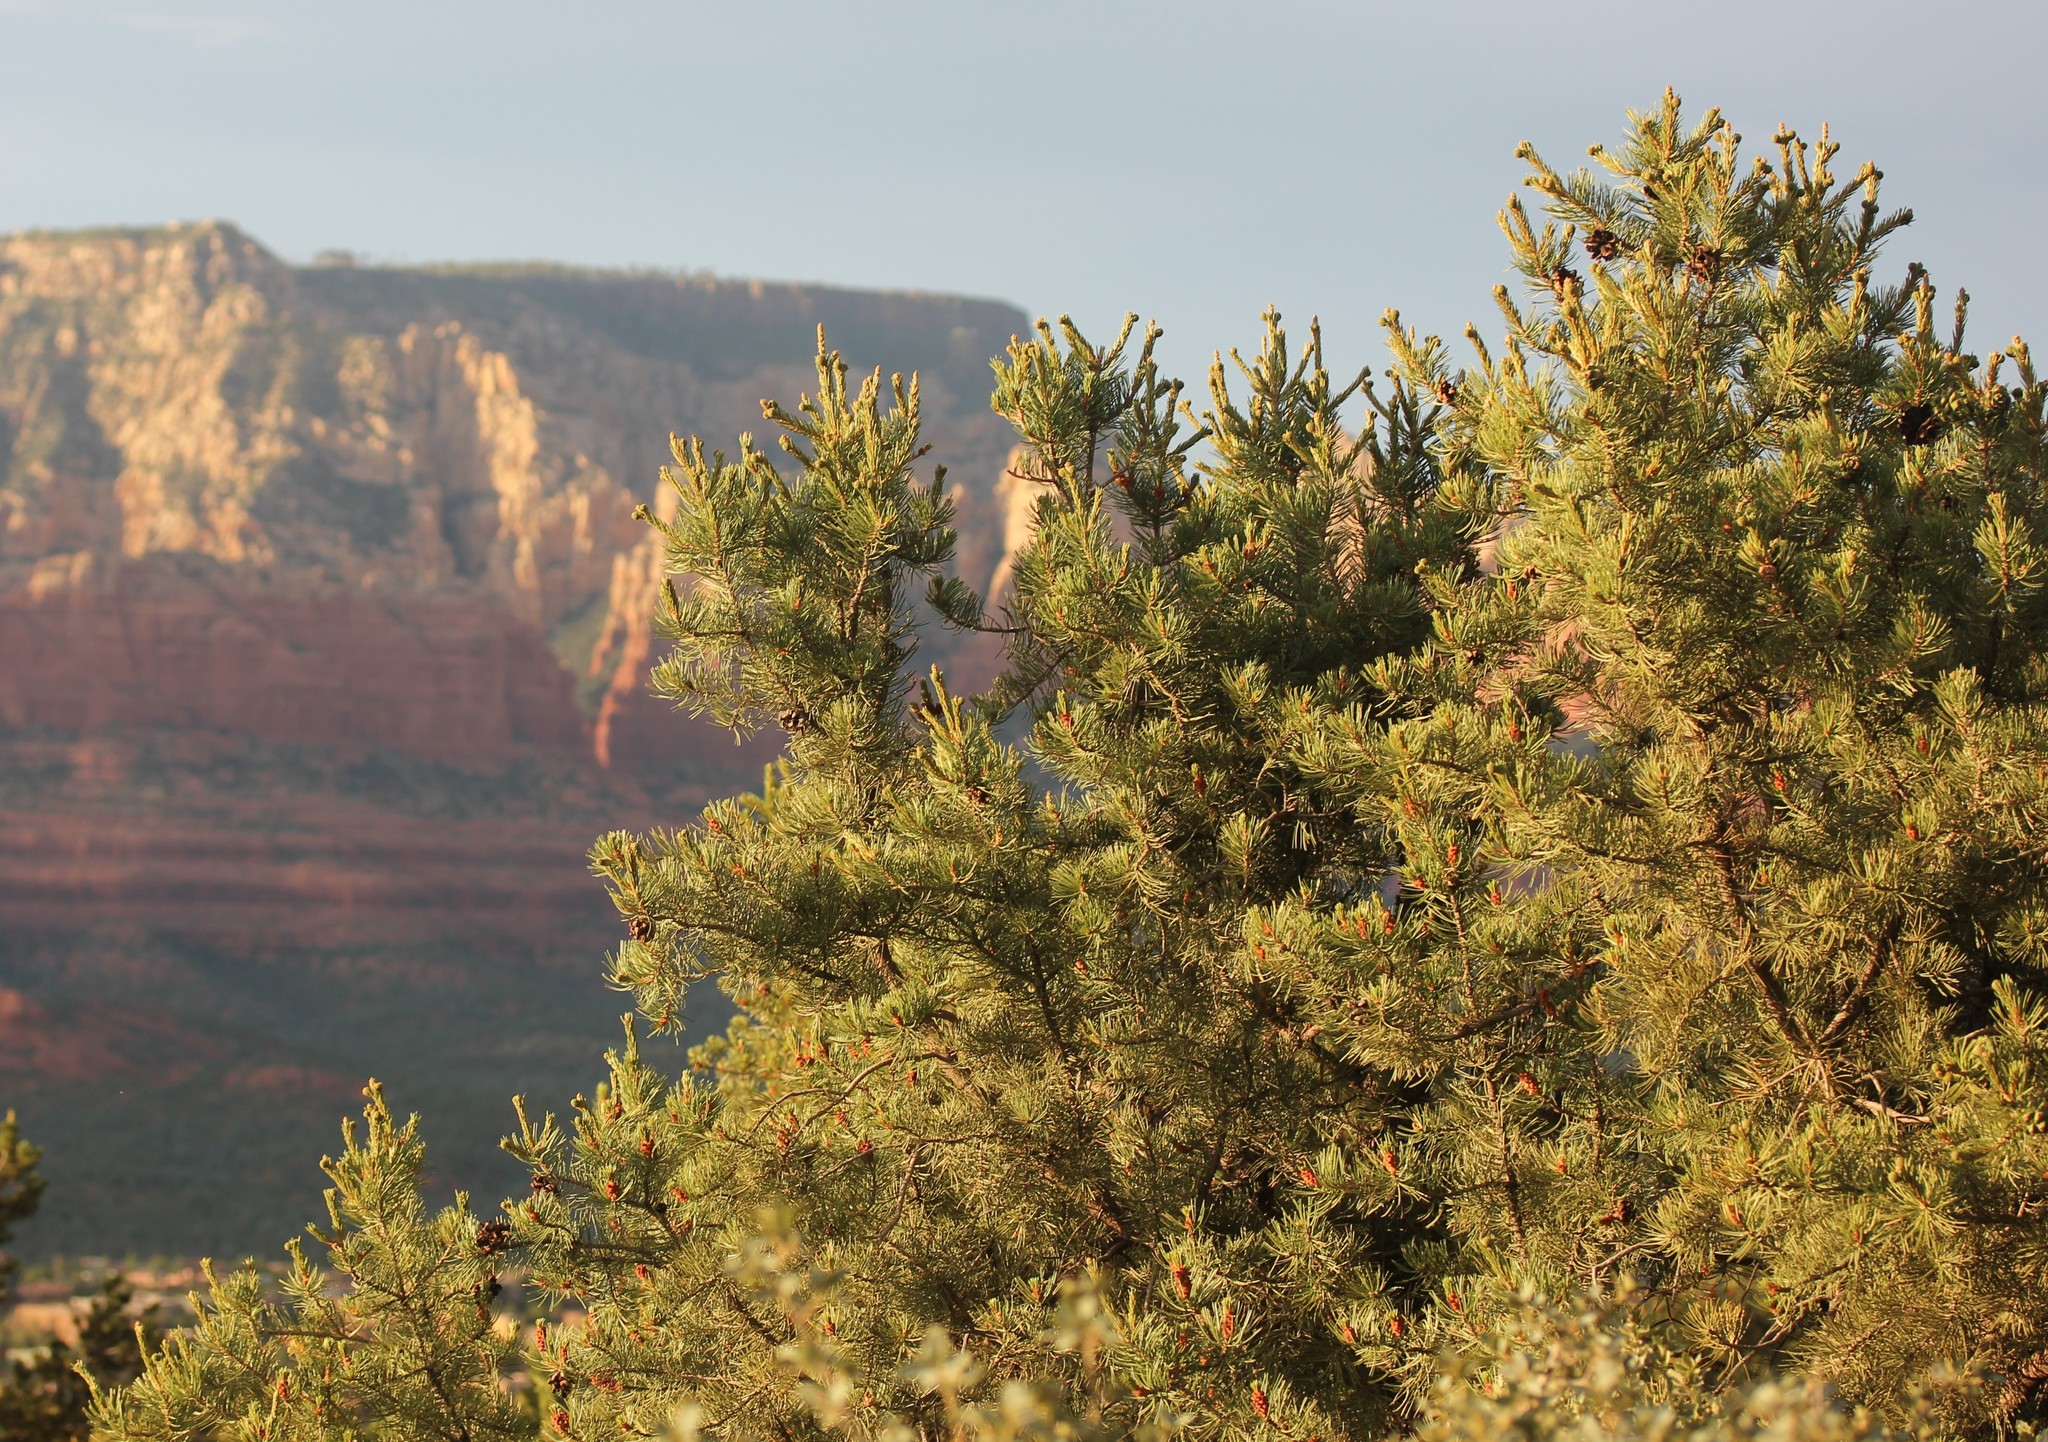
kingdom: Plantae
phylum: Tracheophyta
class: Pinopsida
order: Pinales
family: Pinaceae
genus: Pinus
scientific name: Pinus edulis
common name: Colorado pinyon
